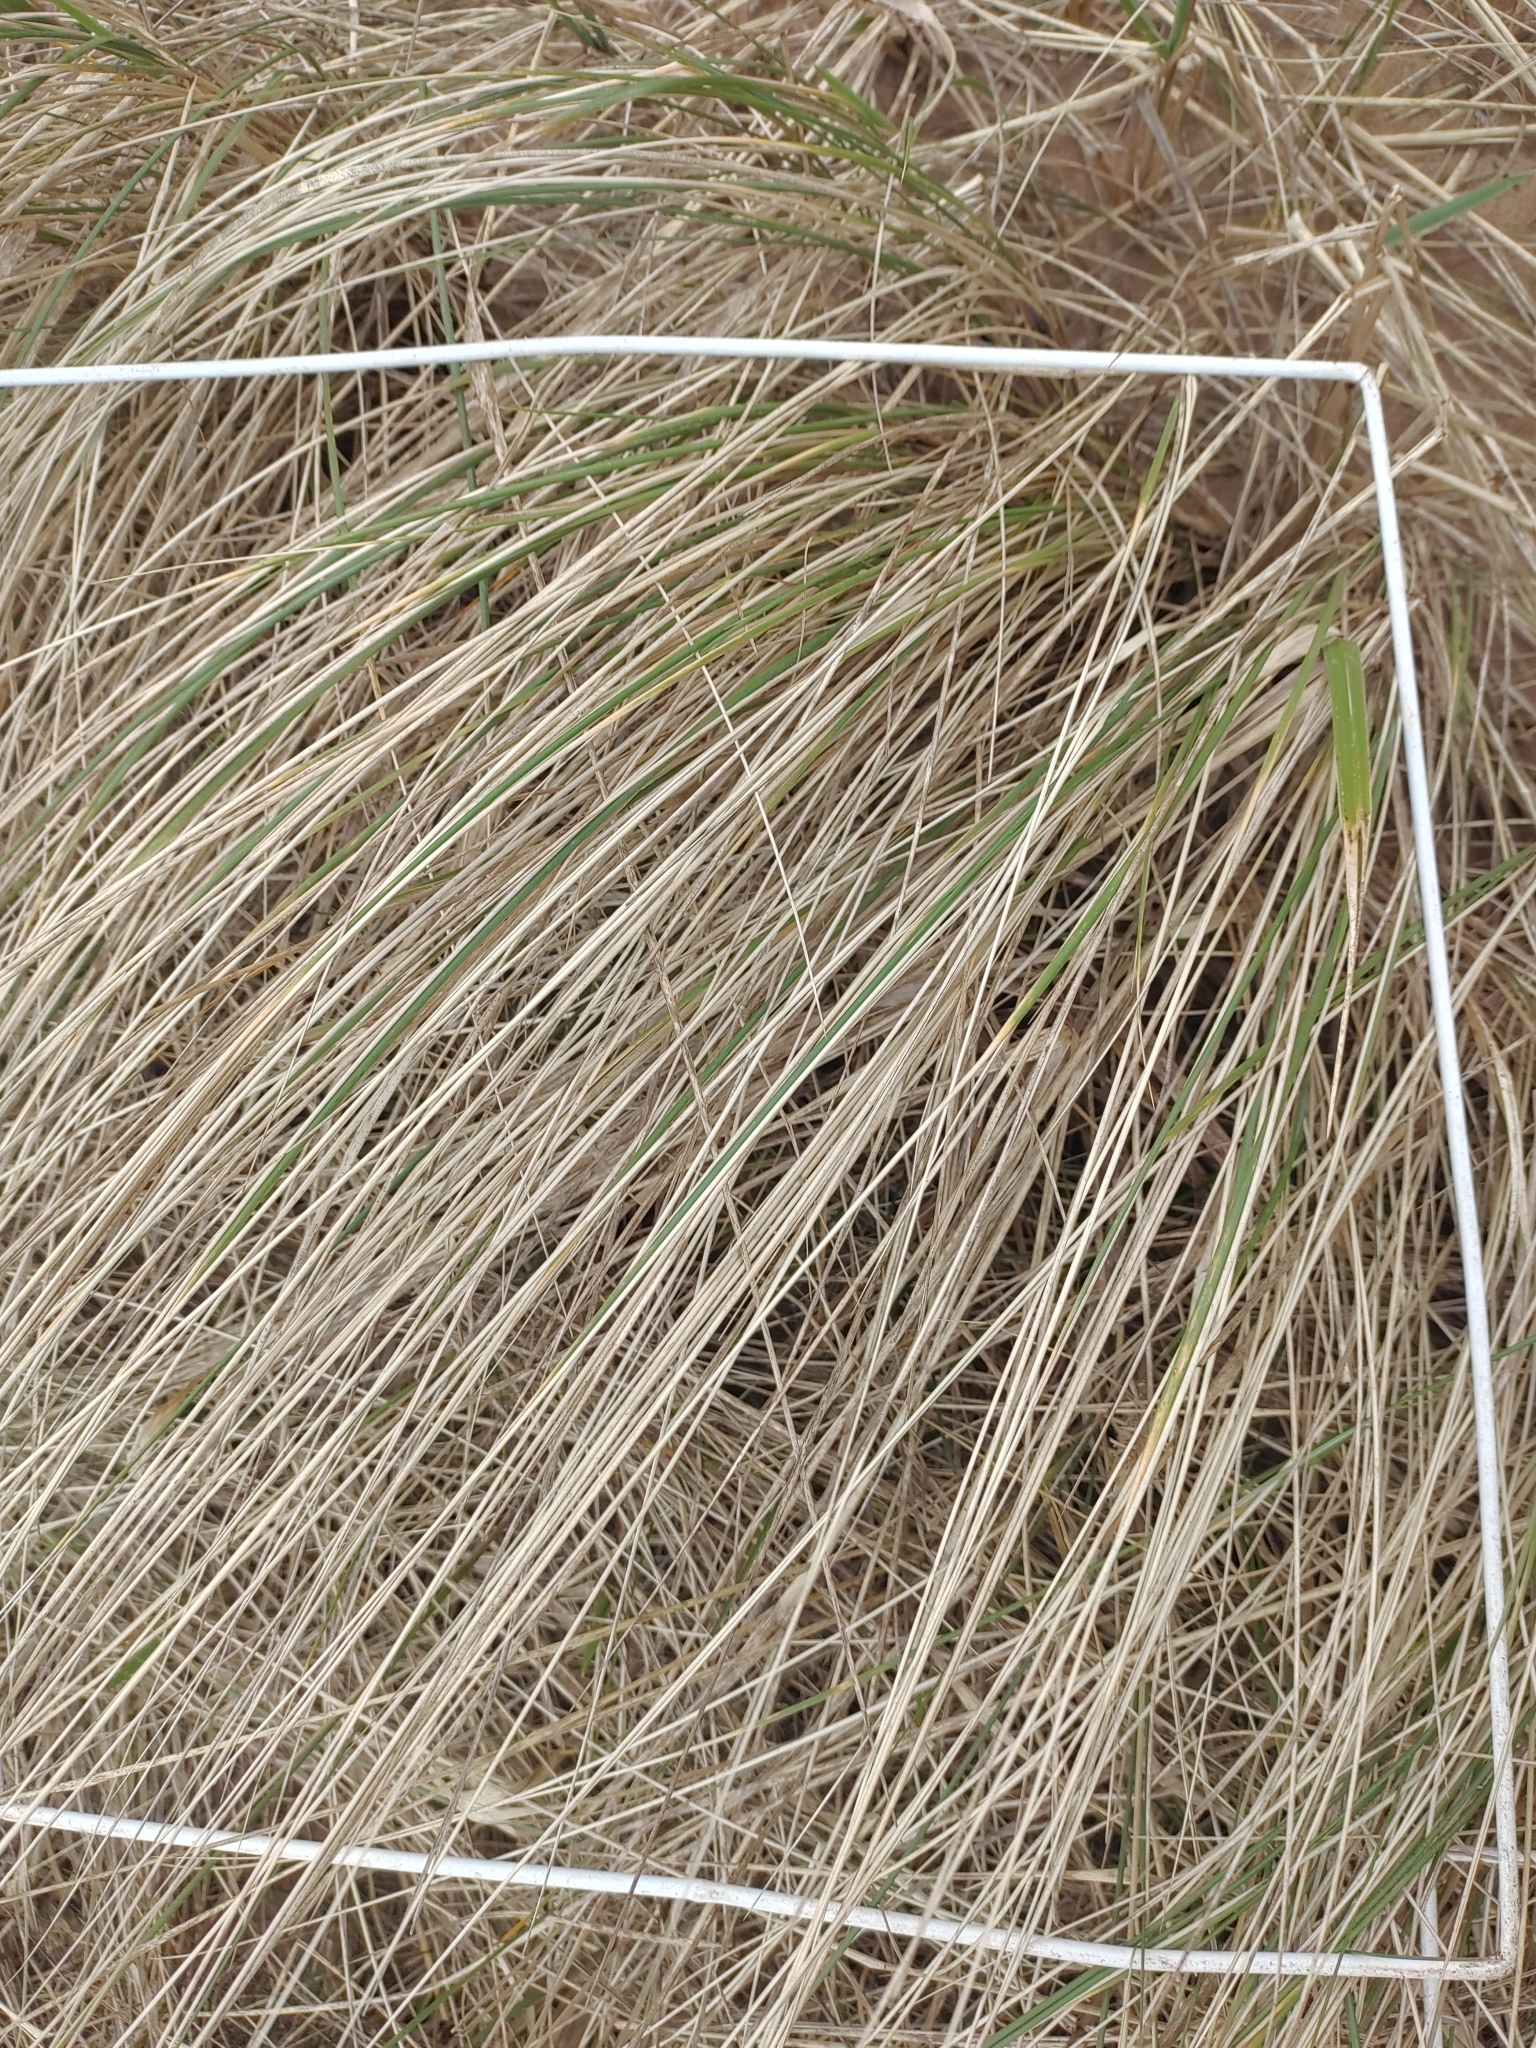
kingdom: Plantae
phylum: Tracheophyta
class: Liliopsida
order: Poales
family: Poaceae
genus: Calamagrostis
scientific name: Calamagrostis arenaria
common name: European beachgrass
